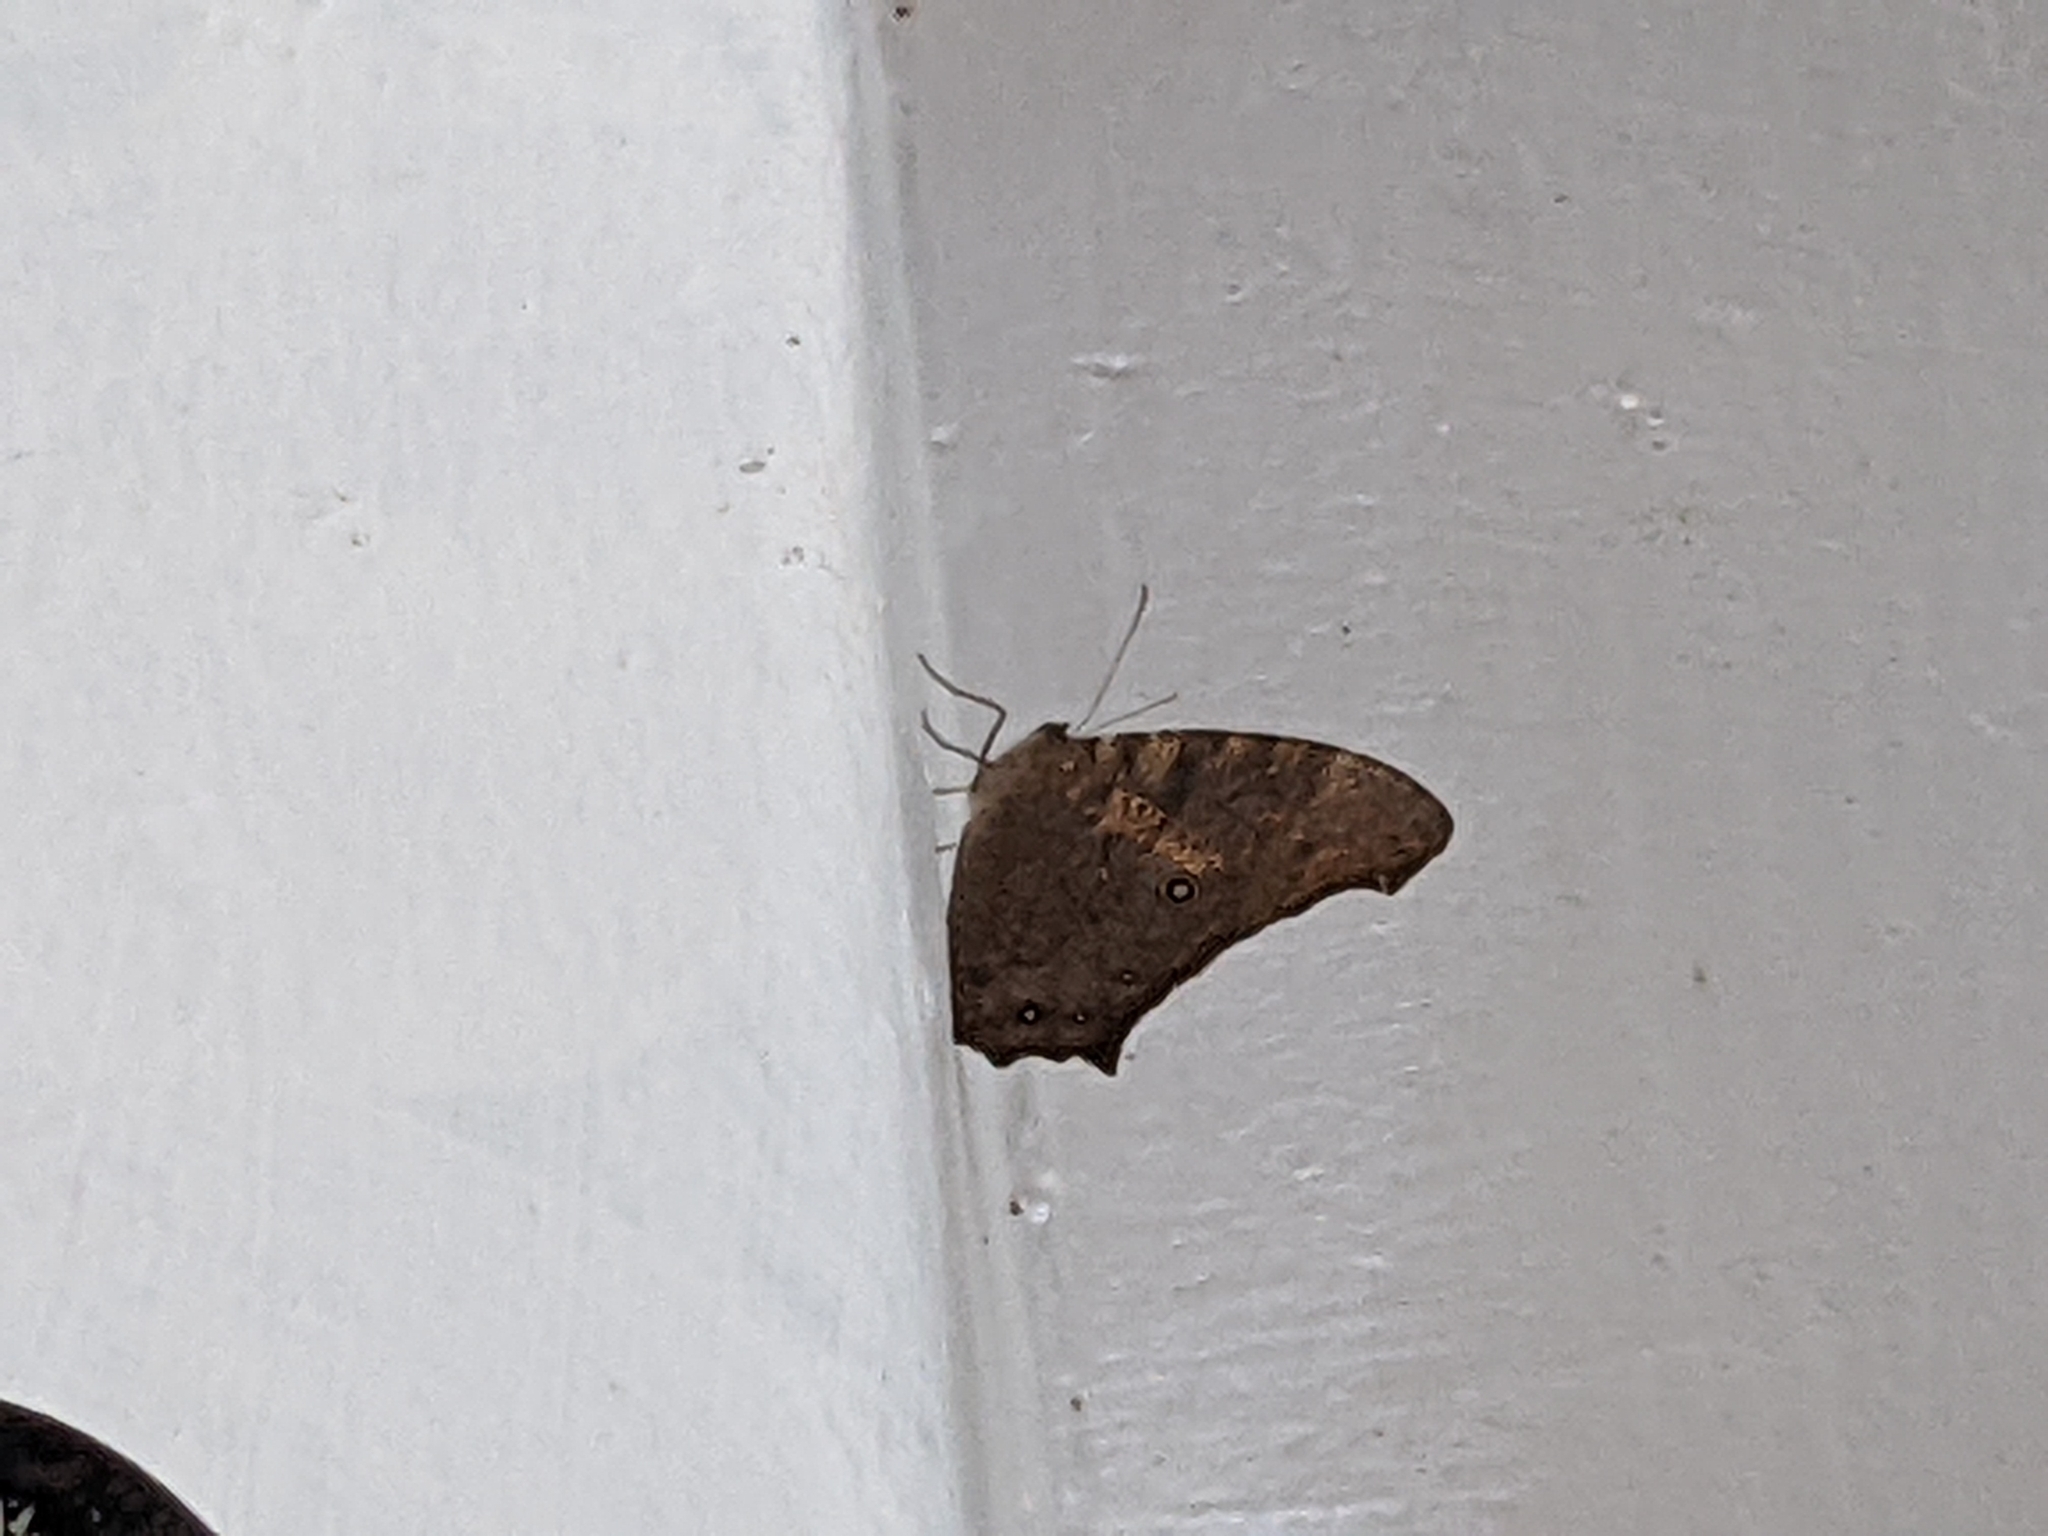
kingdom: Animalia
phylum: Arthropoda
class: Insecta
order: Lepidoptera
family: Nymphalidae
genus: Melanitis
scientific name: Melanitis leda
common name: Twilight brown
